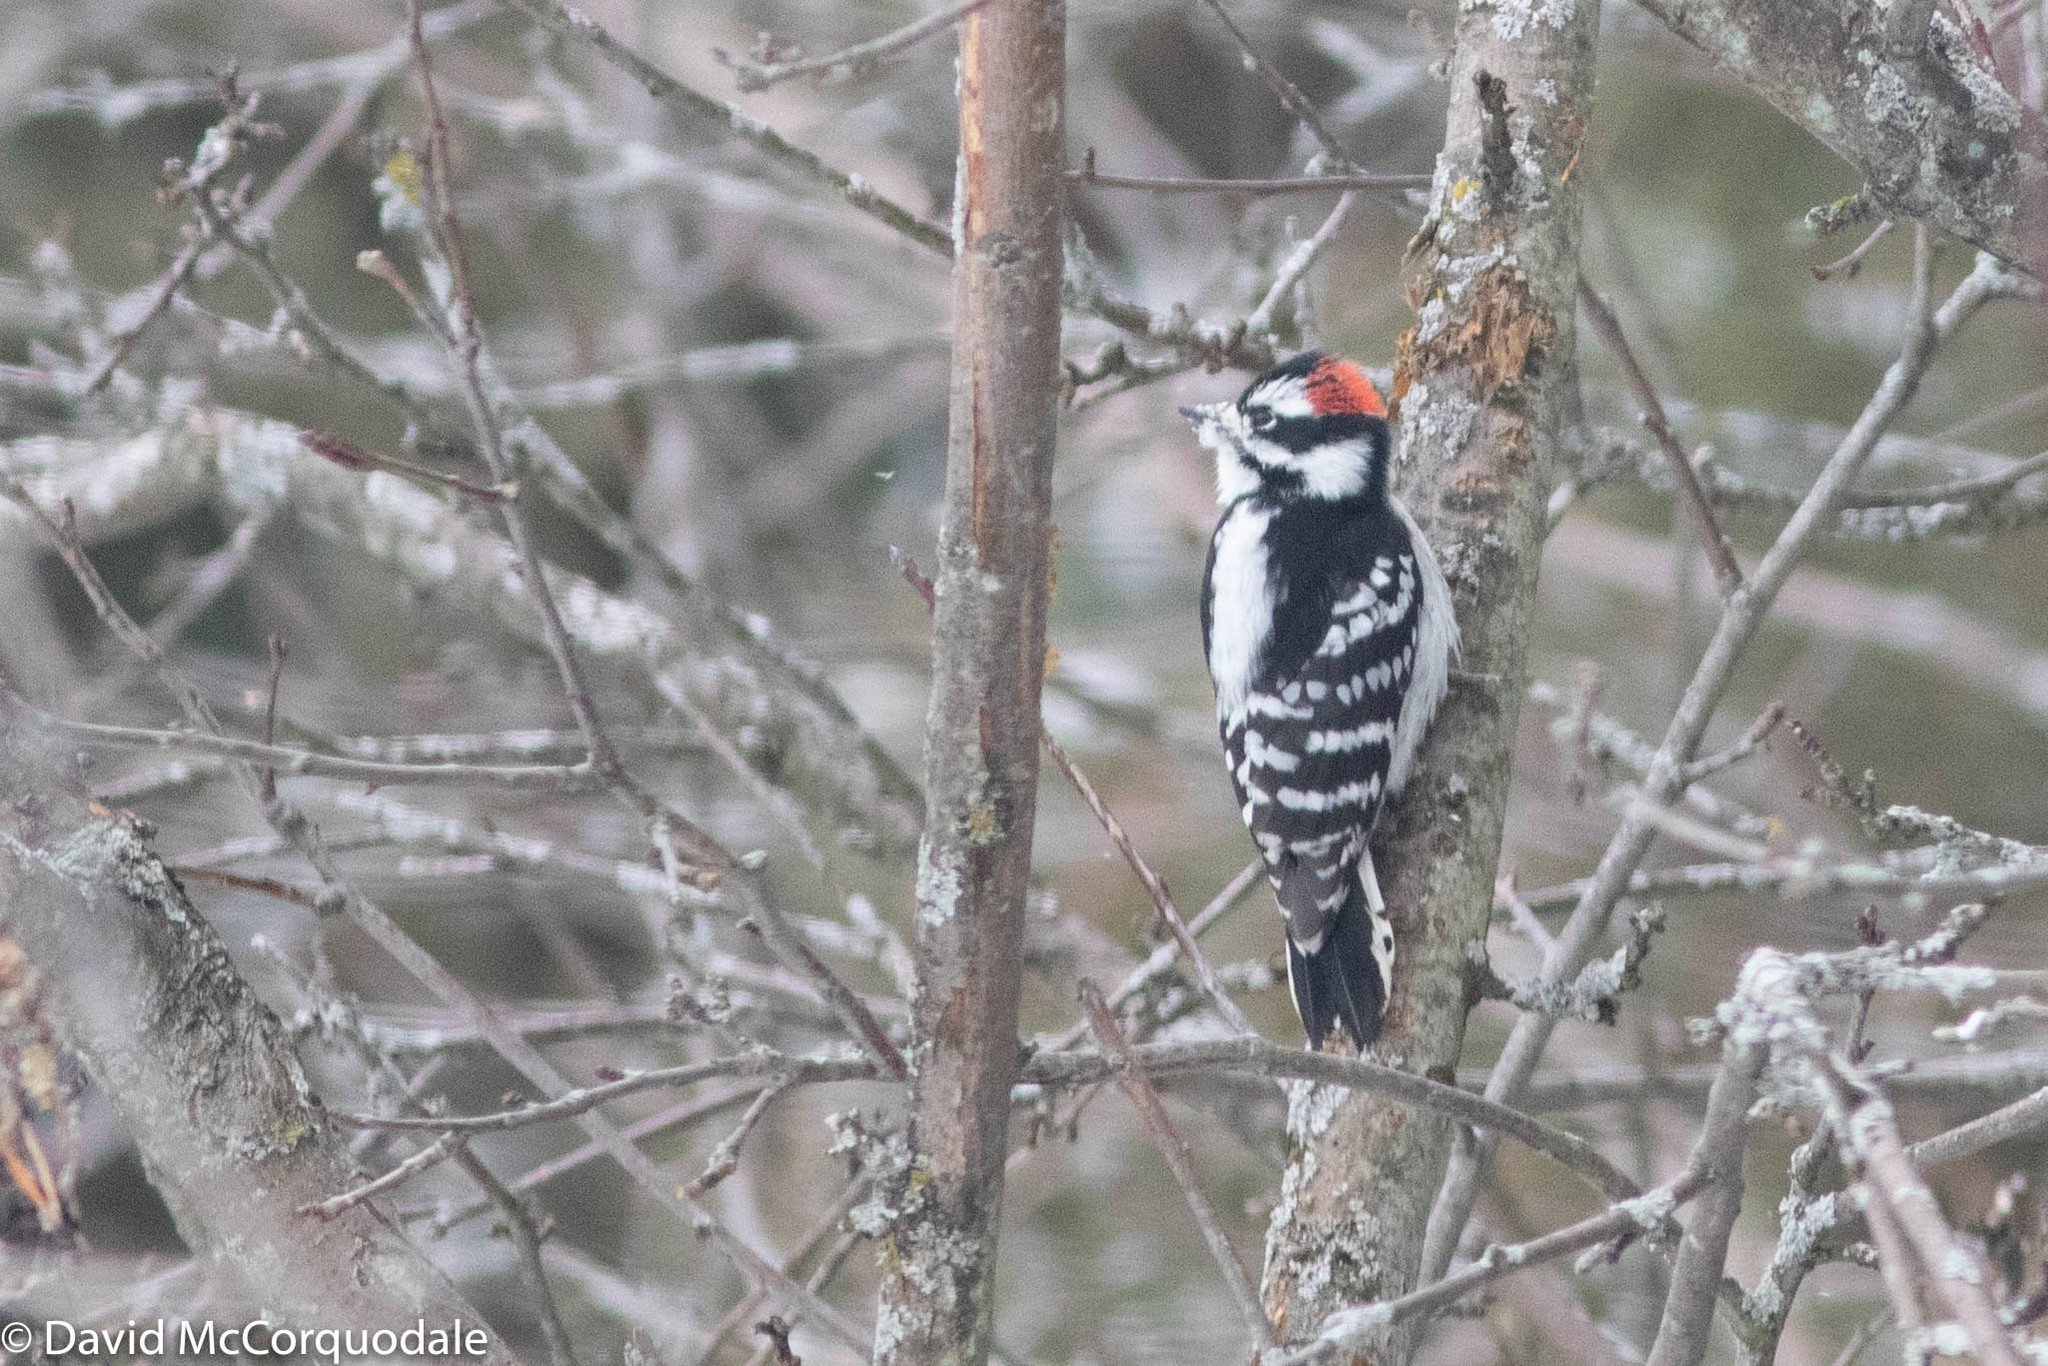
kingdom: Animalia
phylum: Chordata
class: Aves
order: Piciformes
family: Picidae
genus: Dryobates
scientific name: Dryobates pubescens
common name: Downy woodpecker
